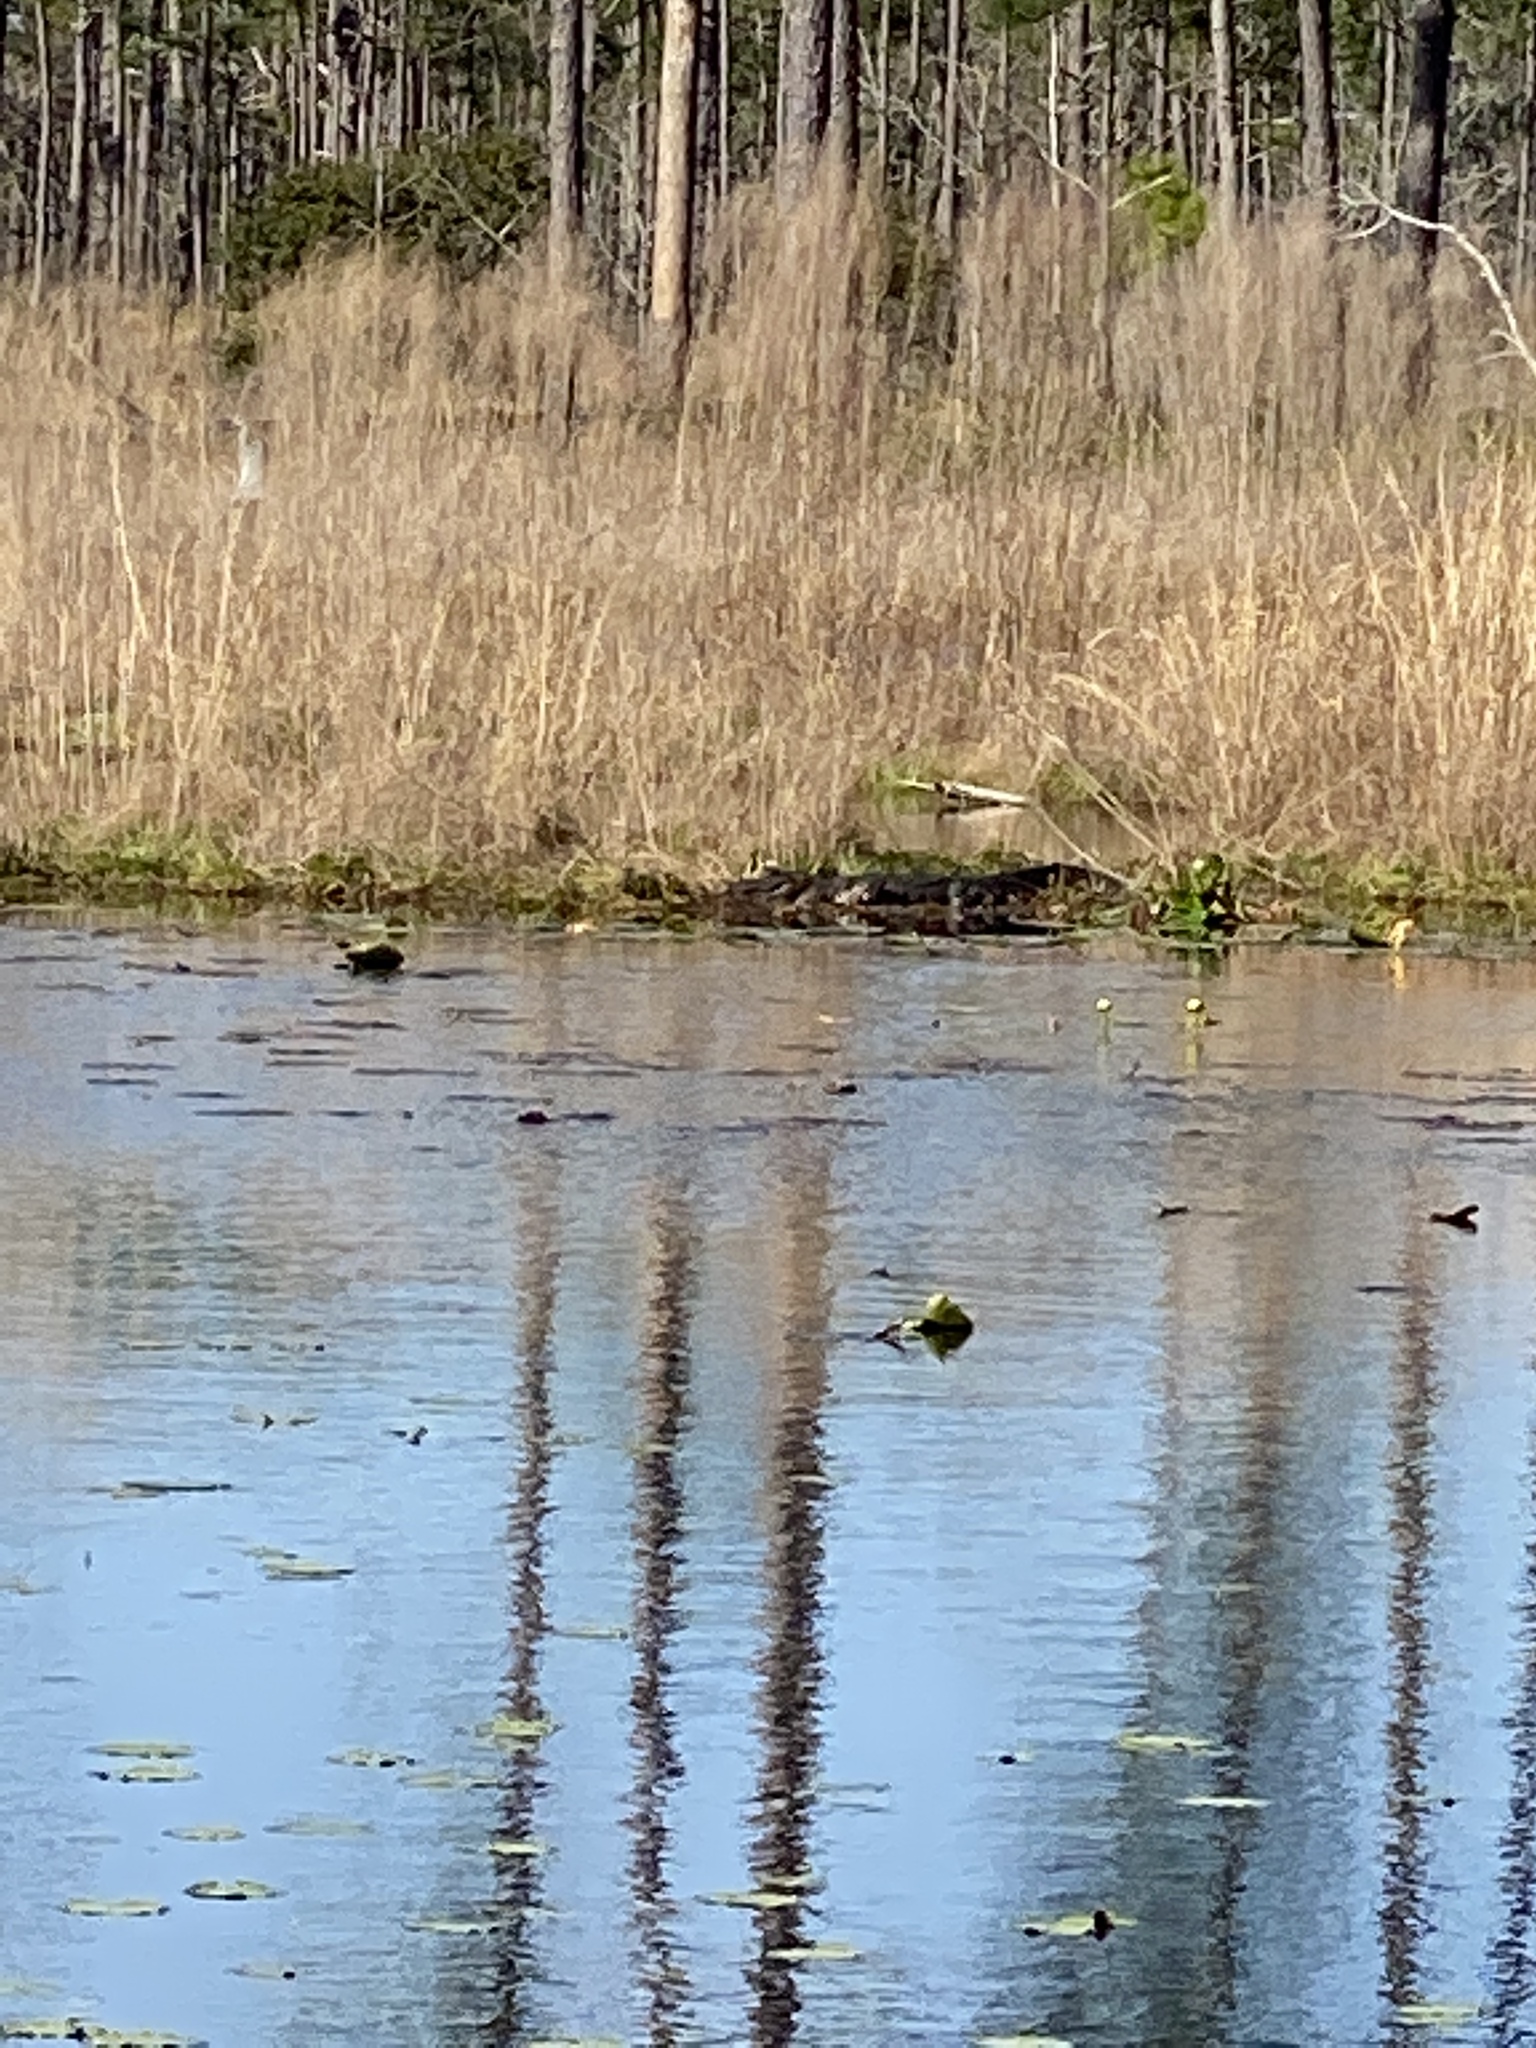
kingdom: Animalia
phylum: Chordata
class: Crocodylia
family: Alligatoridae
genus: Alligator
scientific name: Alligator mississippiensis
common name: American alligator
